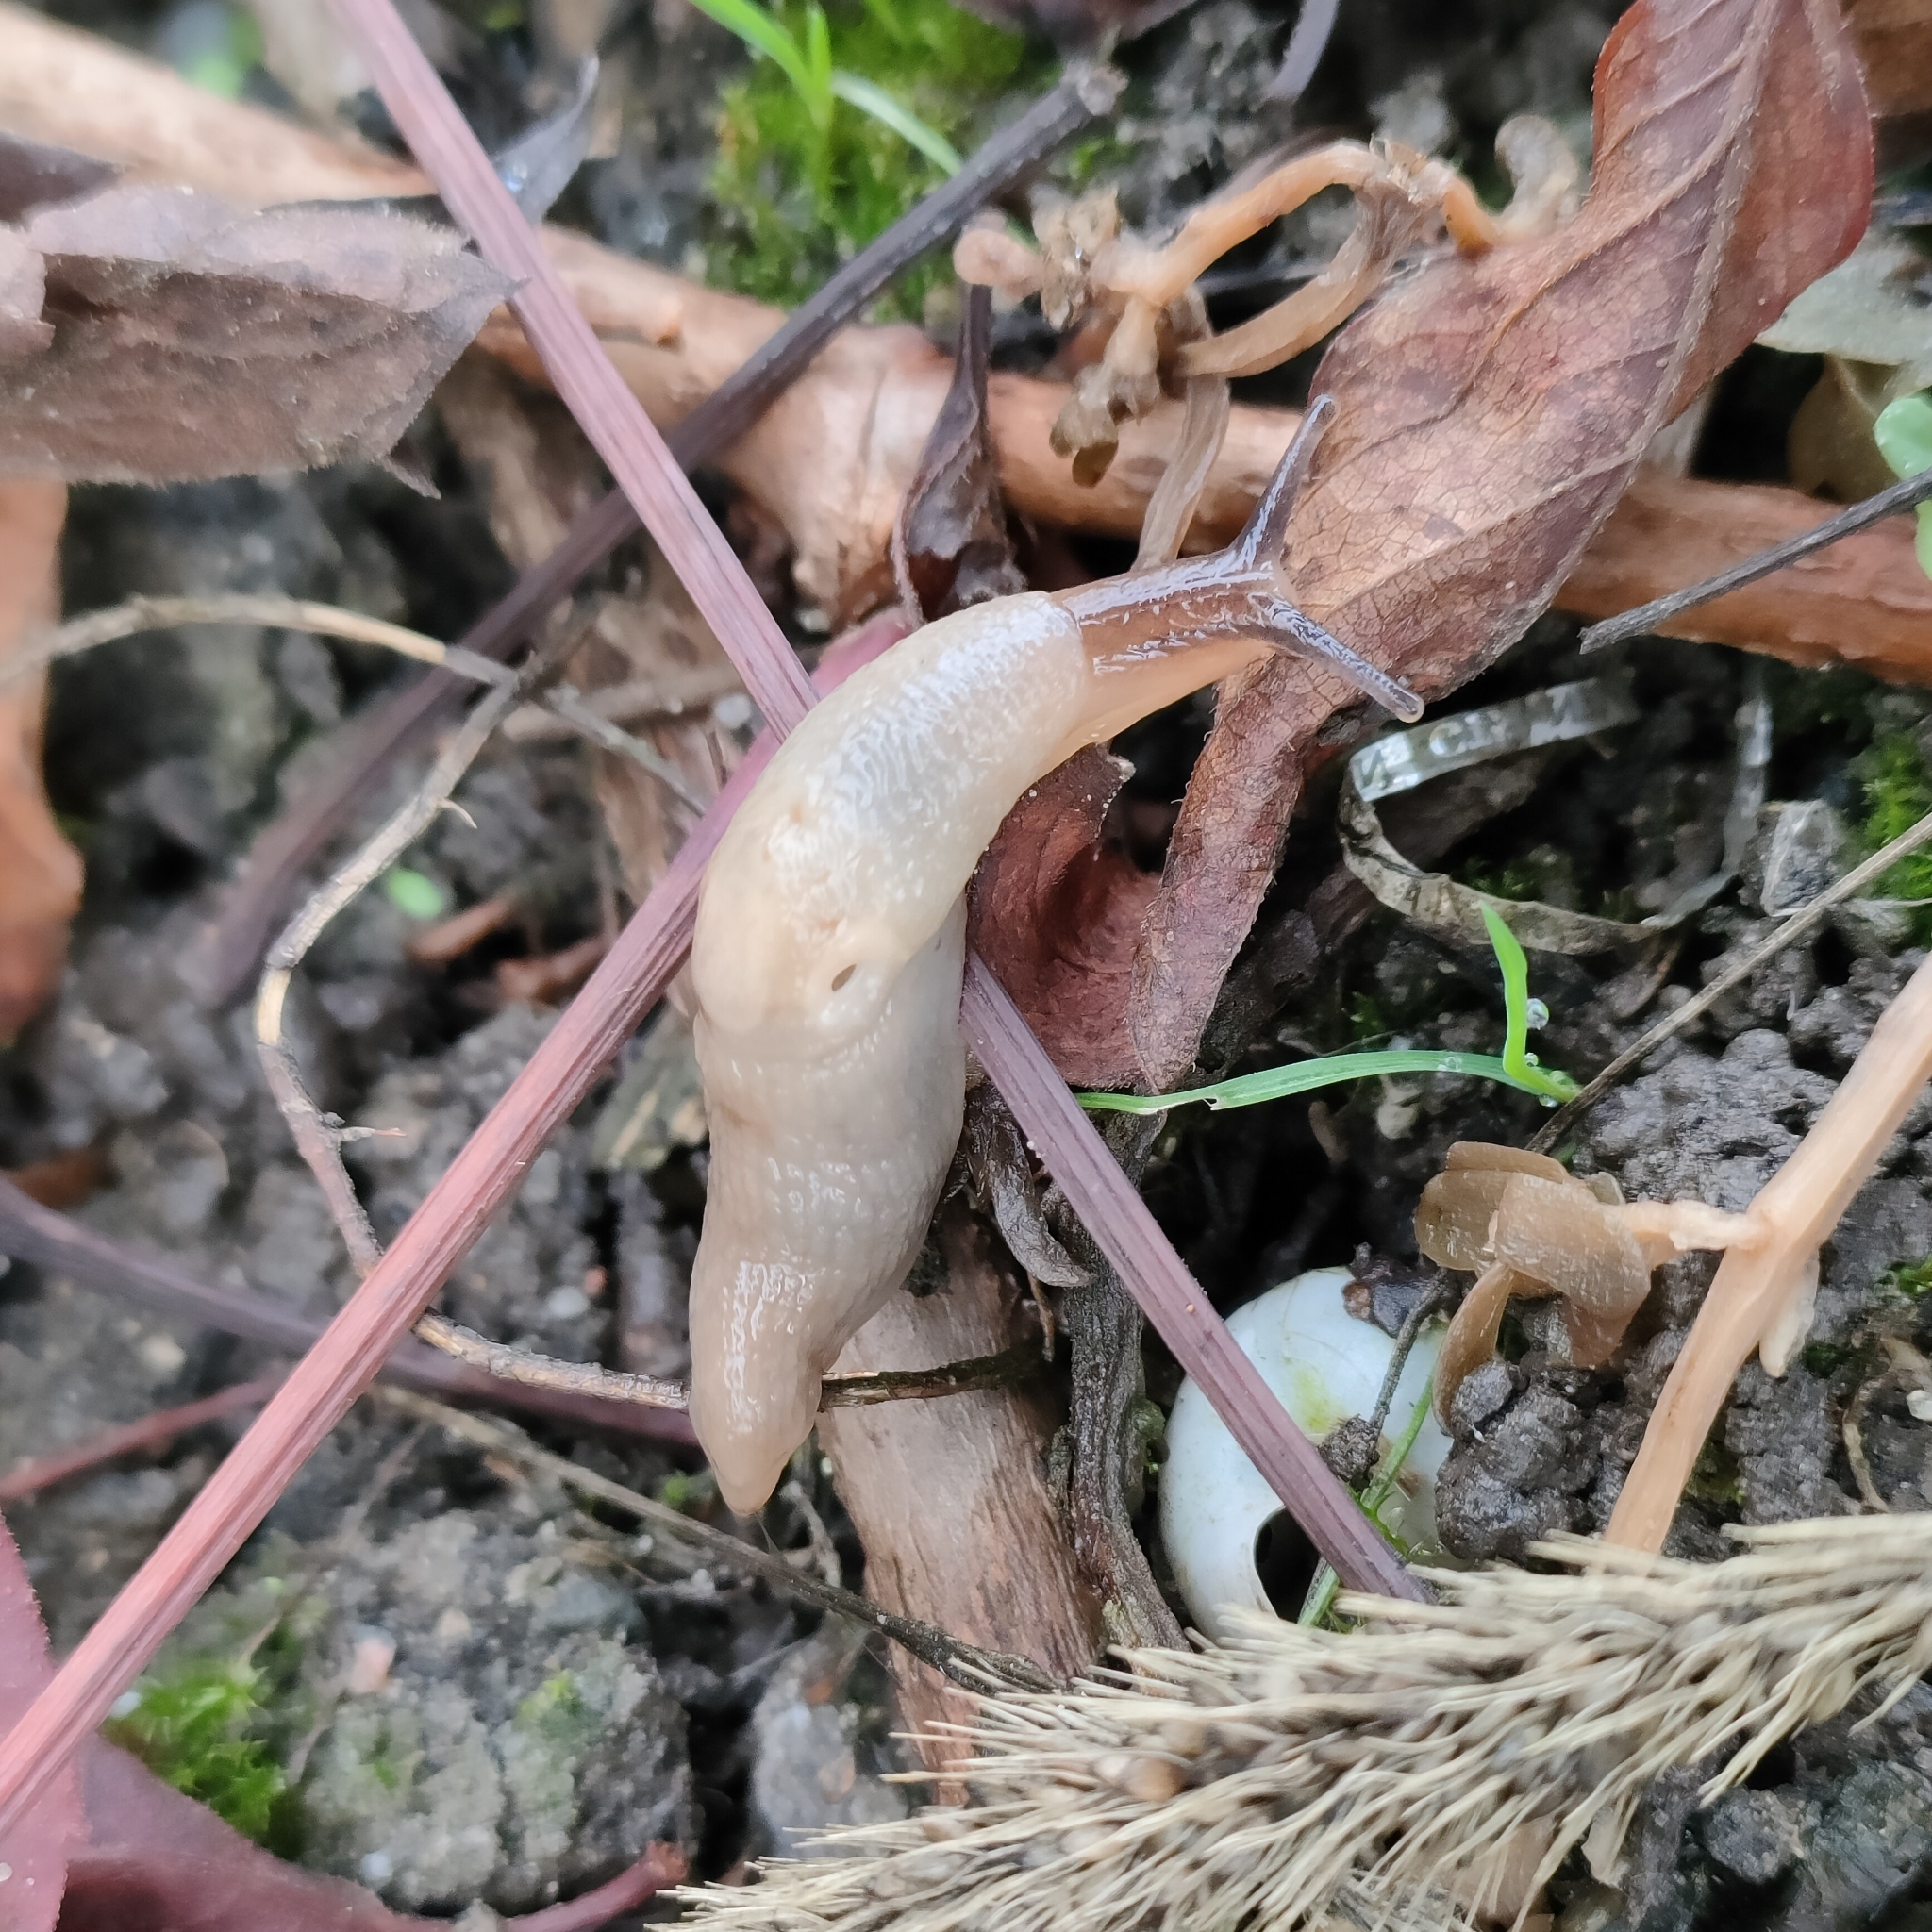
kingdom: Animalia
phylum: Mollusca
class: Gastropoda
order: Stylommatophora
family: Agriolimacidae
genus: Krynickillus
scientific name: Krynickillus melanocephalus
